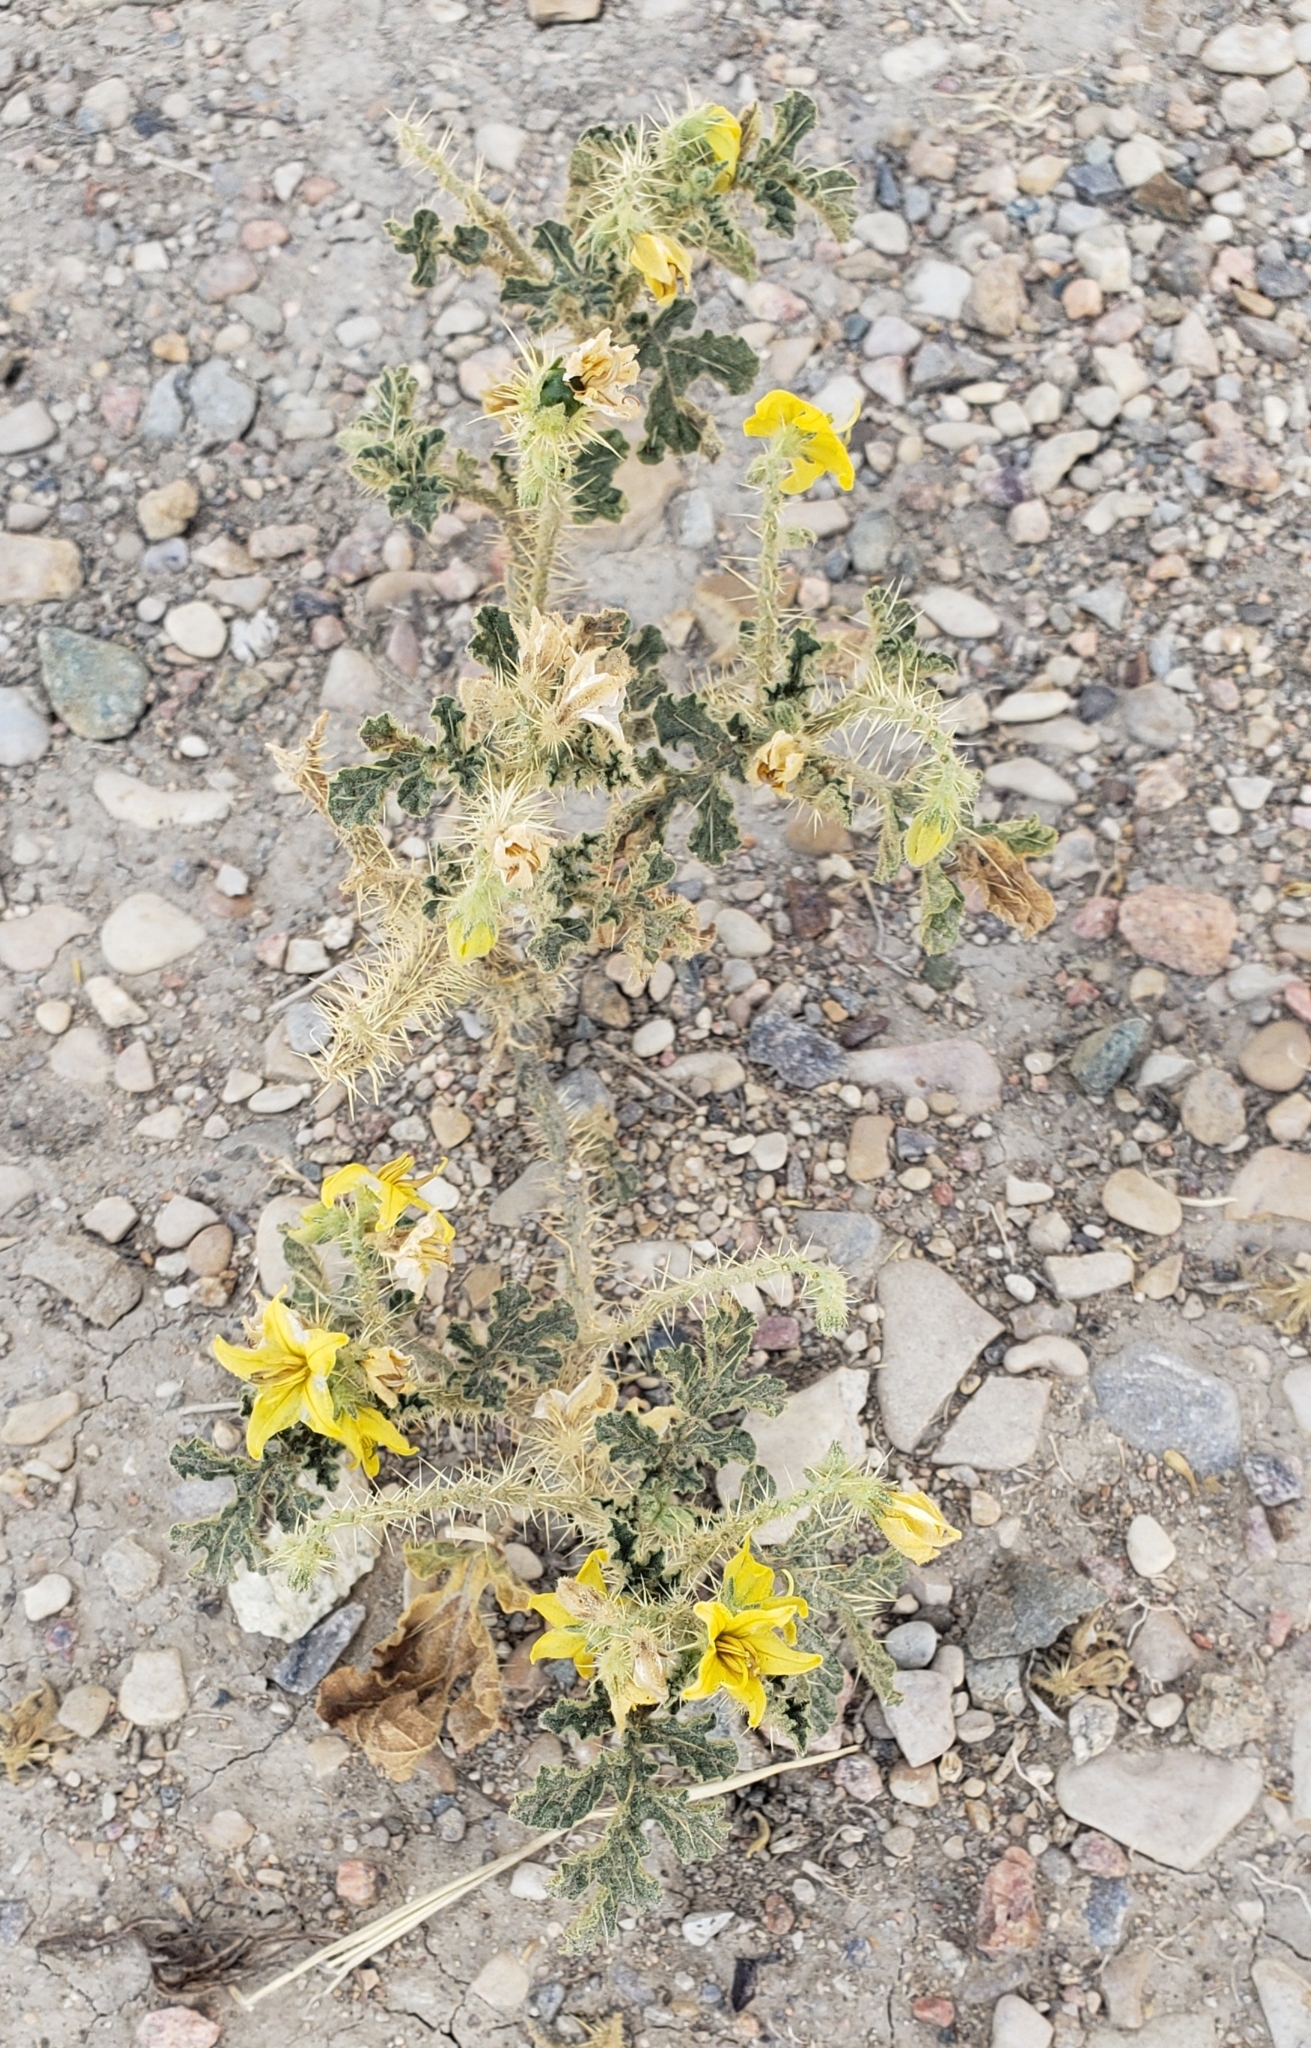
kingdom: Plantae
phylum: Tracheophyta
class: Magnoliopsida
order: Solanales
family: Solanaceae
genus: Solanum
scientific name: Solanum angustifolium
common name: Buffalobur nightshade
